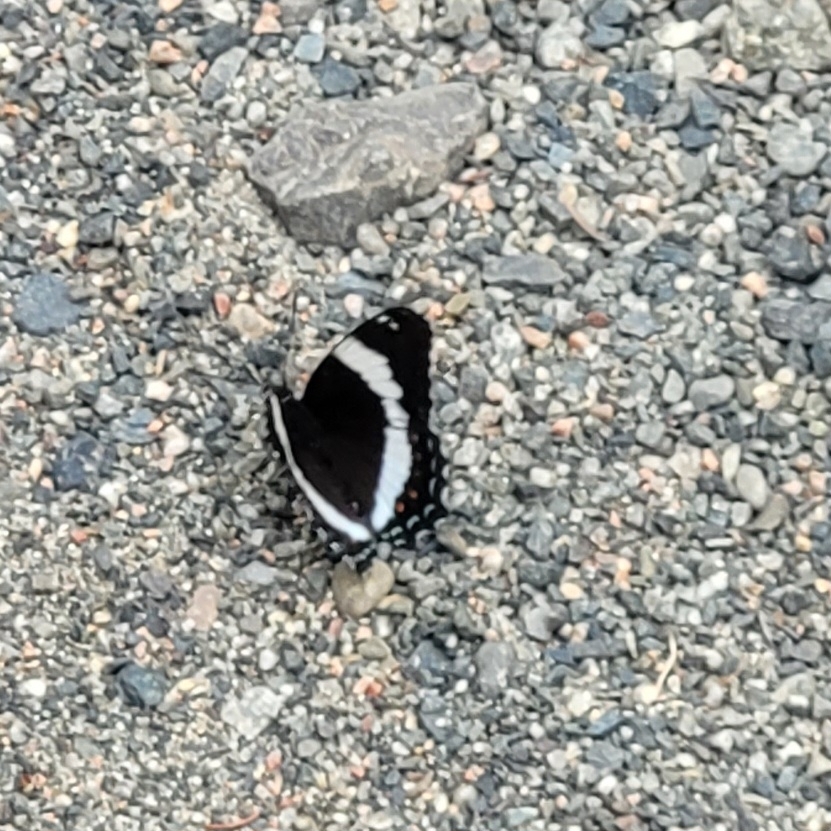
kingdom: Animalia
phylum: Arthropoda
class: Insecta
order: Lepidoptera
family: Nymphalidae
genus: Limenitis
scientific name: Limenitis arthemis
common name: Red-spotted admiral
